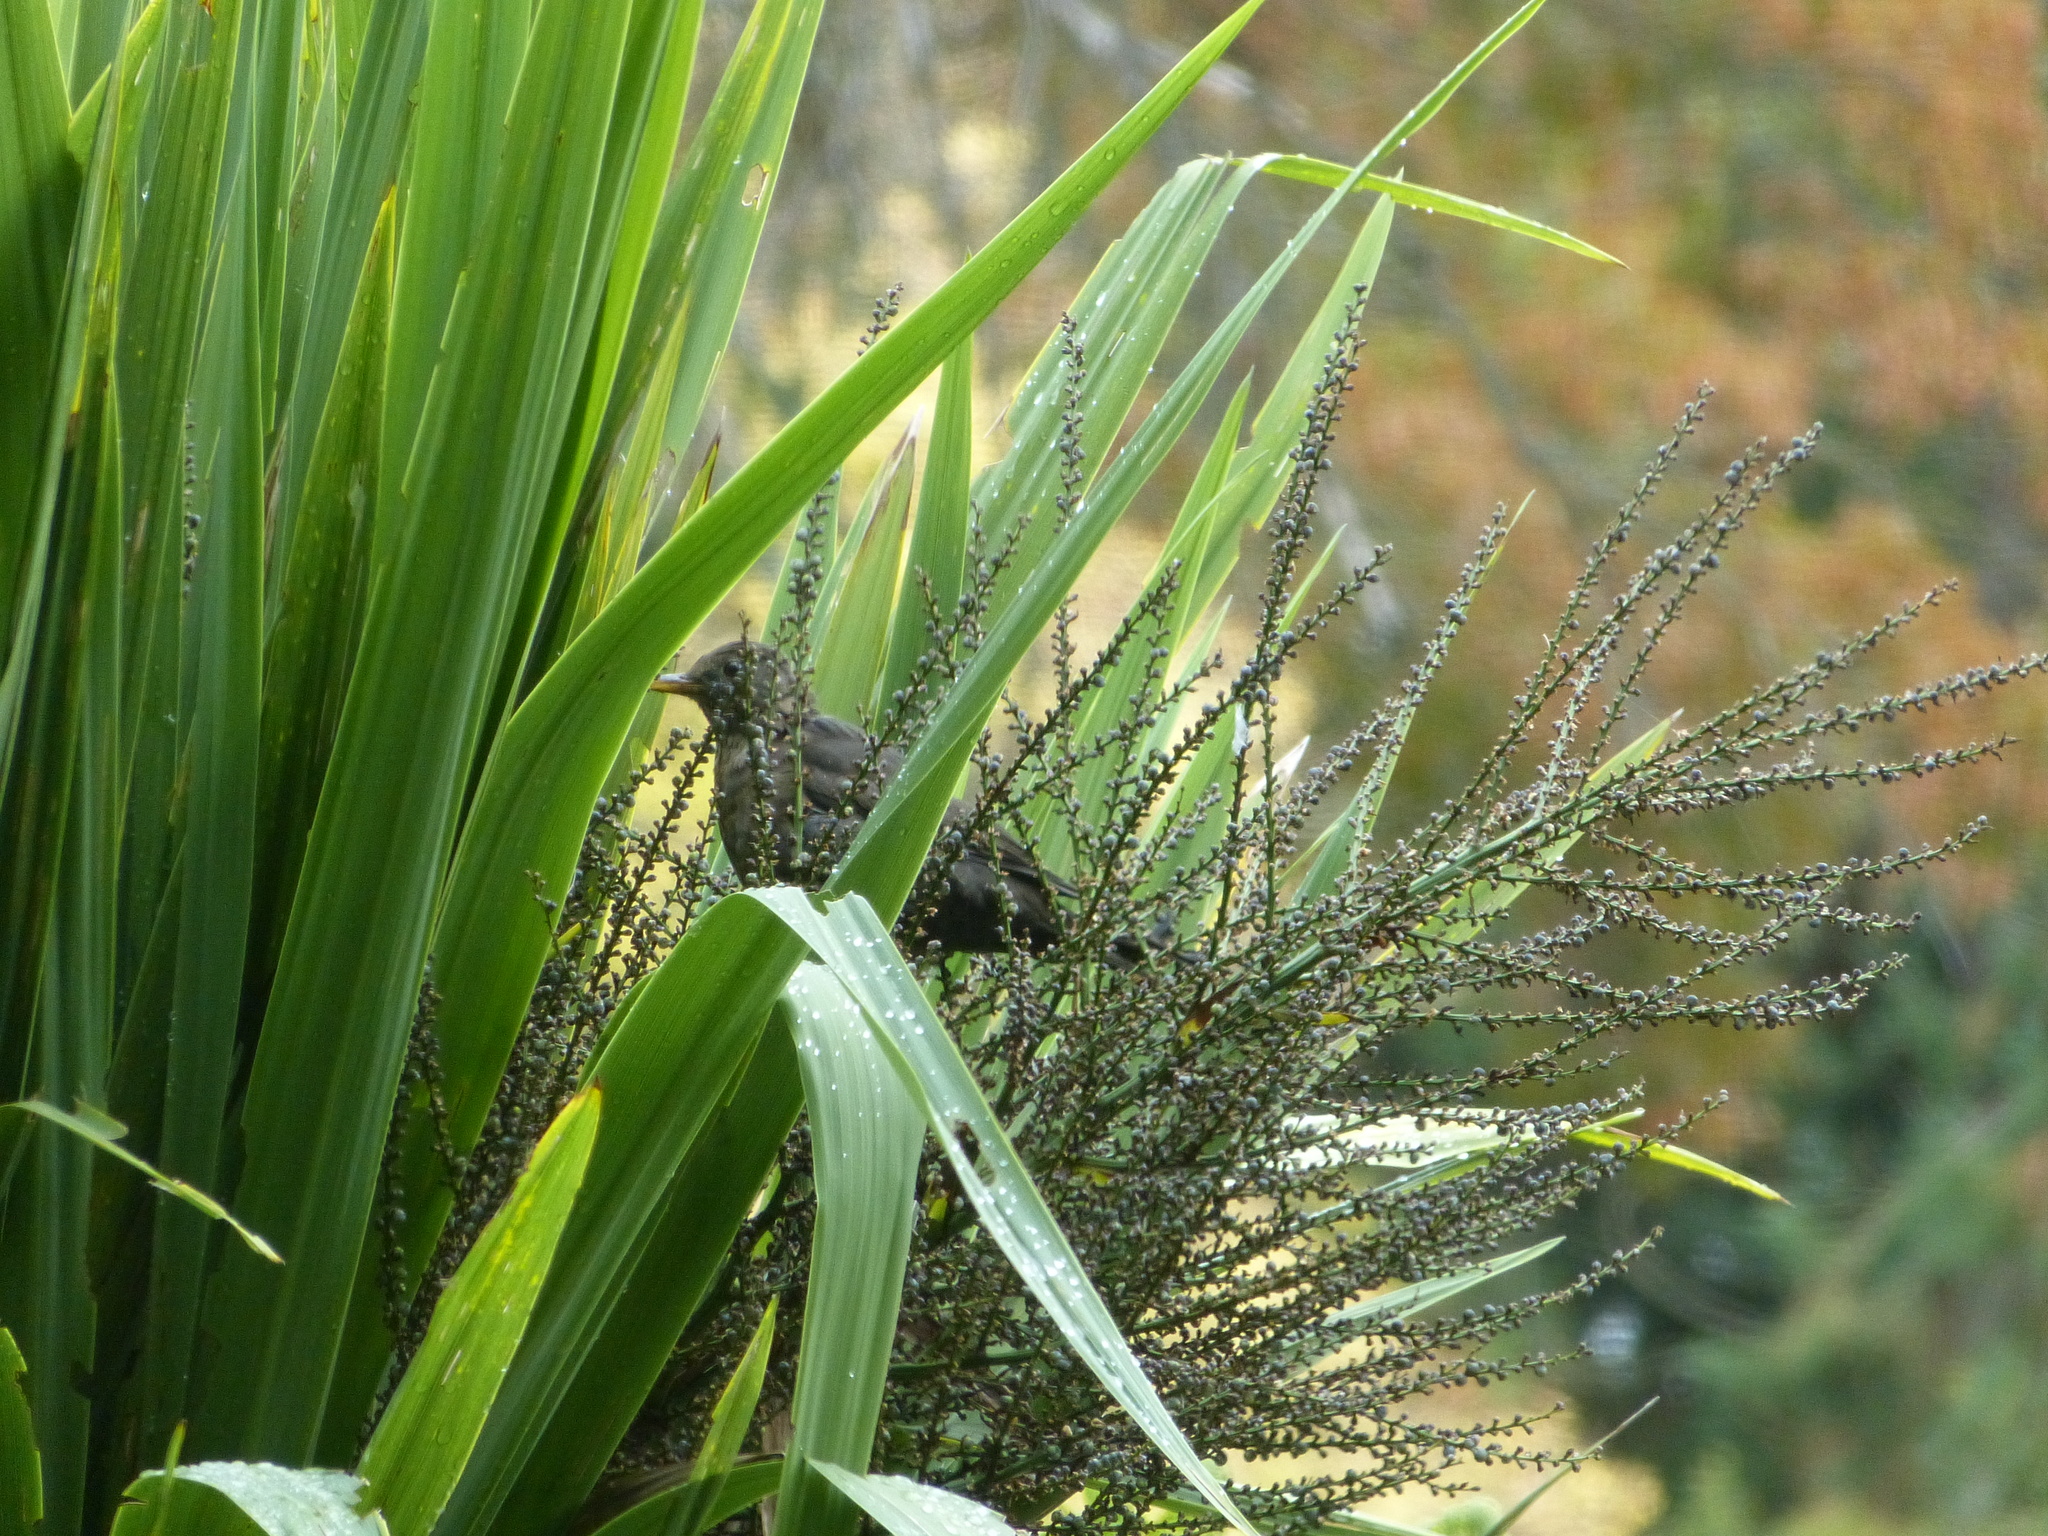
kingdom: Animalia
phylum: Chordata
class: Aves
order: Passeriformes
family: Turdidae
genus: Turdus
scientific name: Turdus merula
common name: Common blackbird
